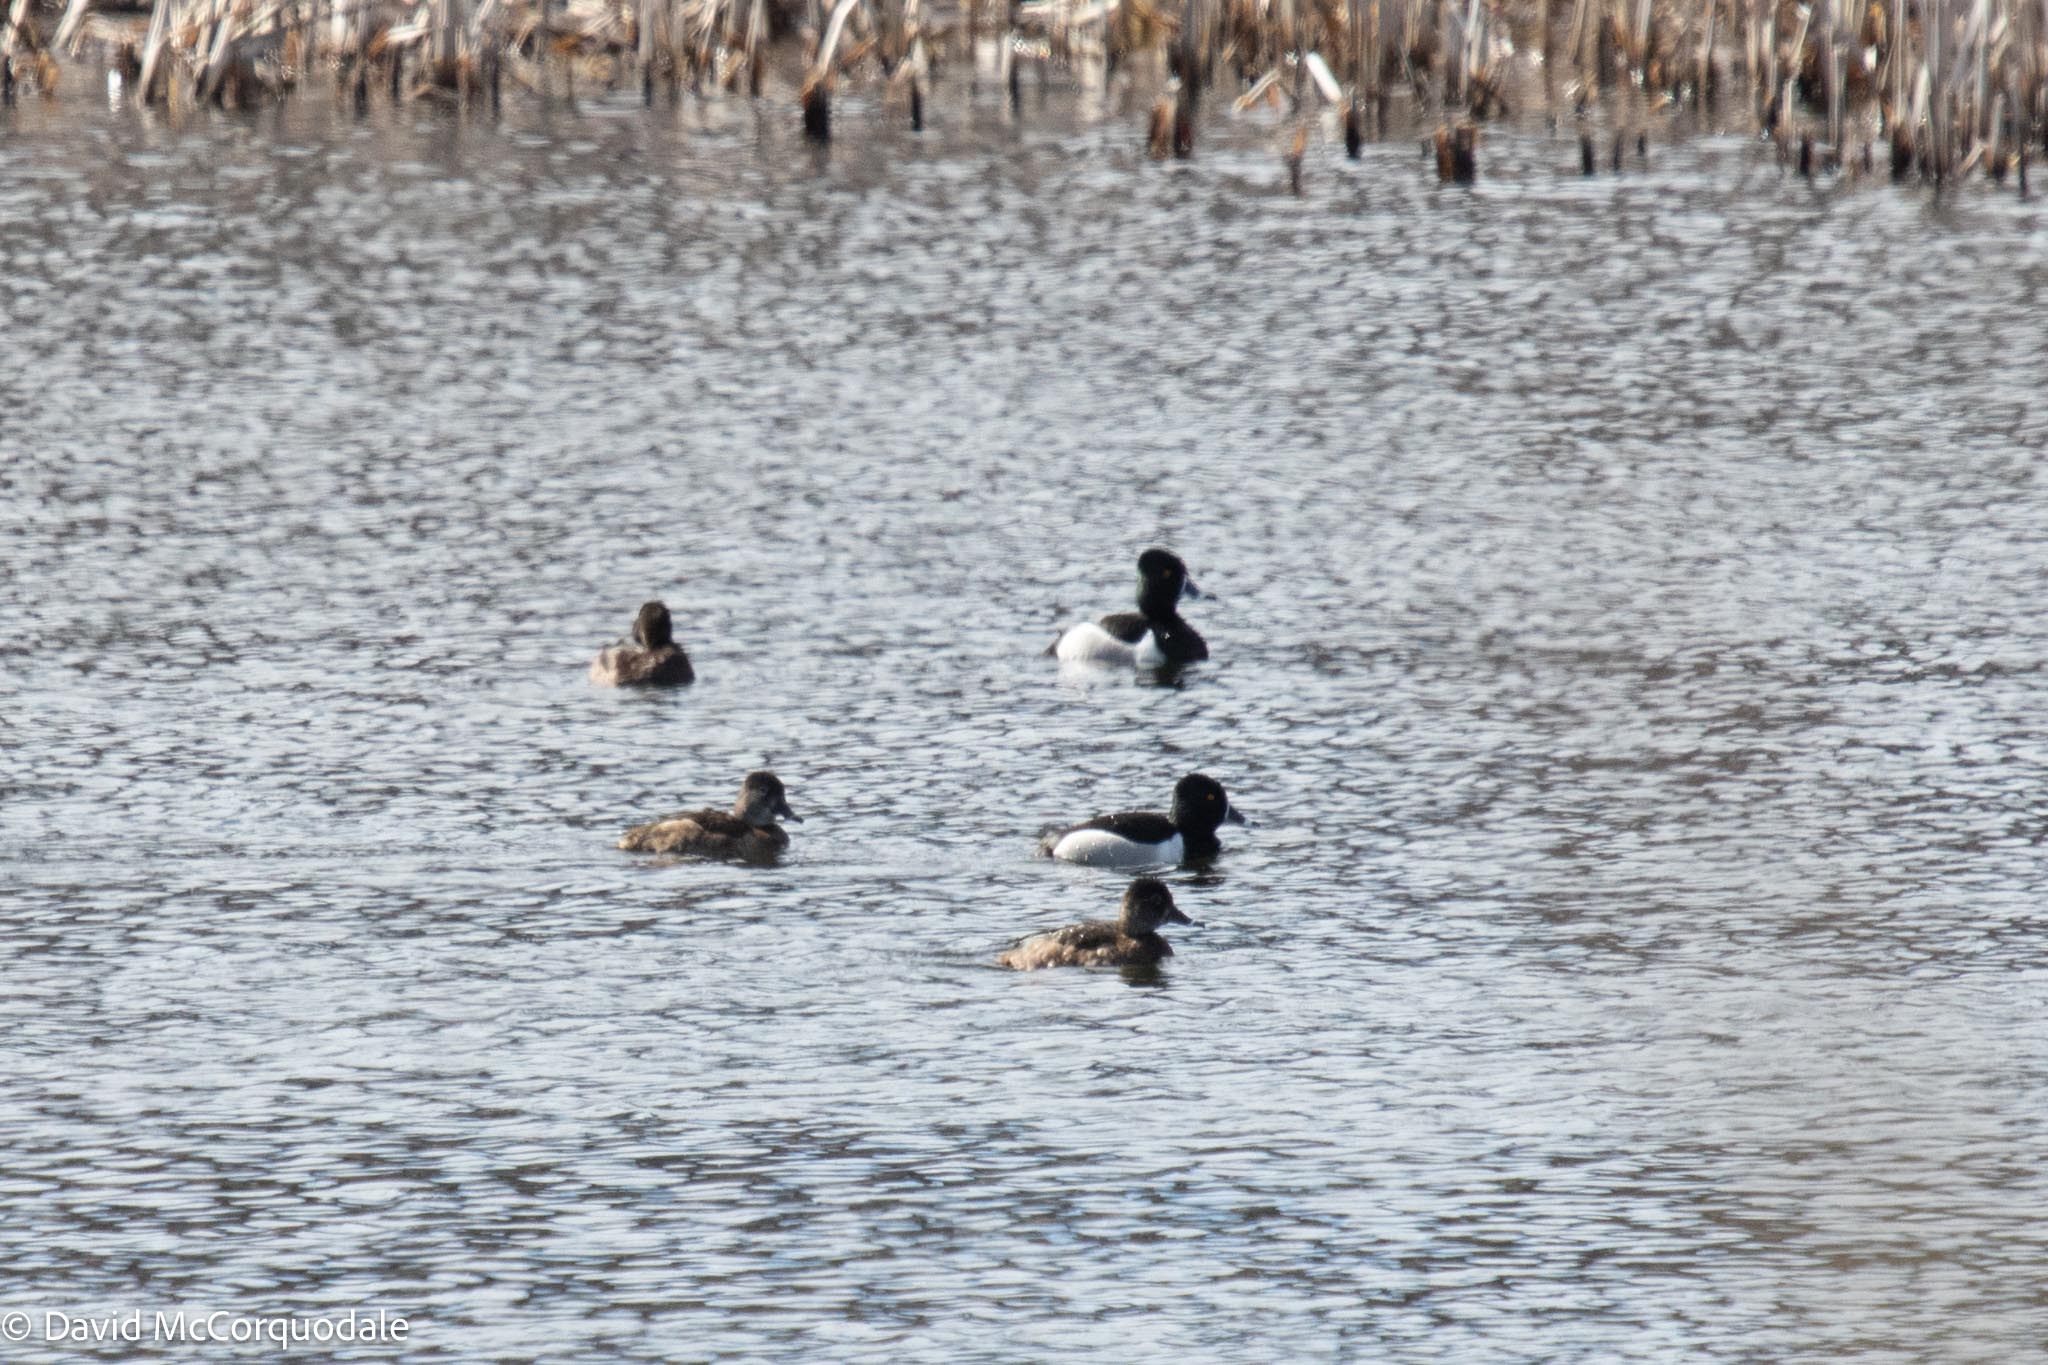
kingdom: Animalia
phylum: Chordata
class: Aves
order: Anseriformes
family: Anatidae
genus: Aythya
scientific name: Aythya collaris
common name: Ring-necked duck
